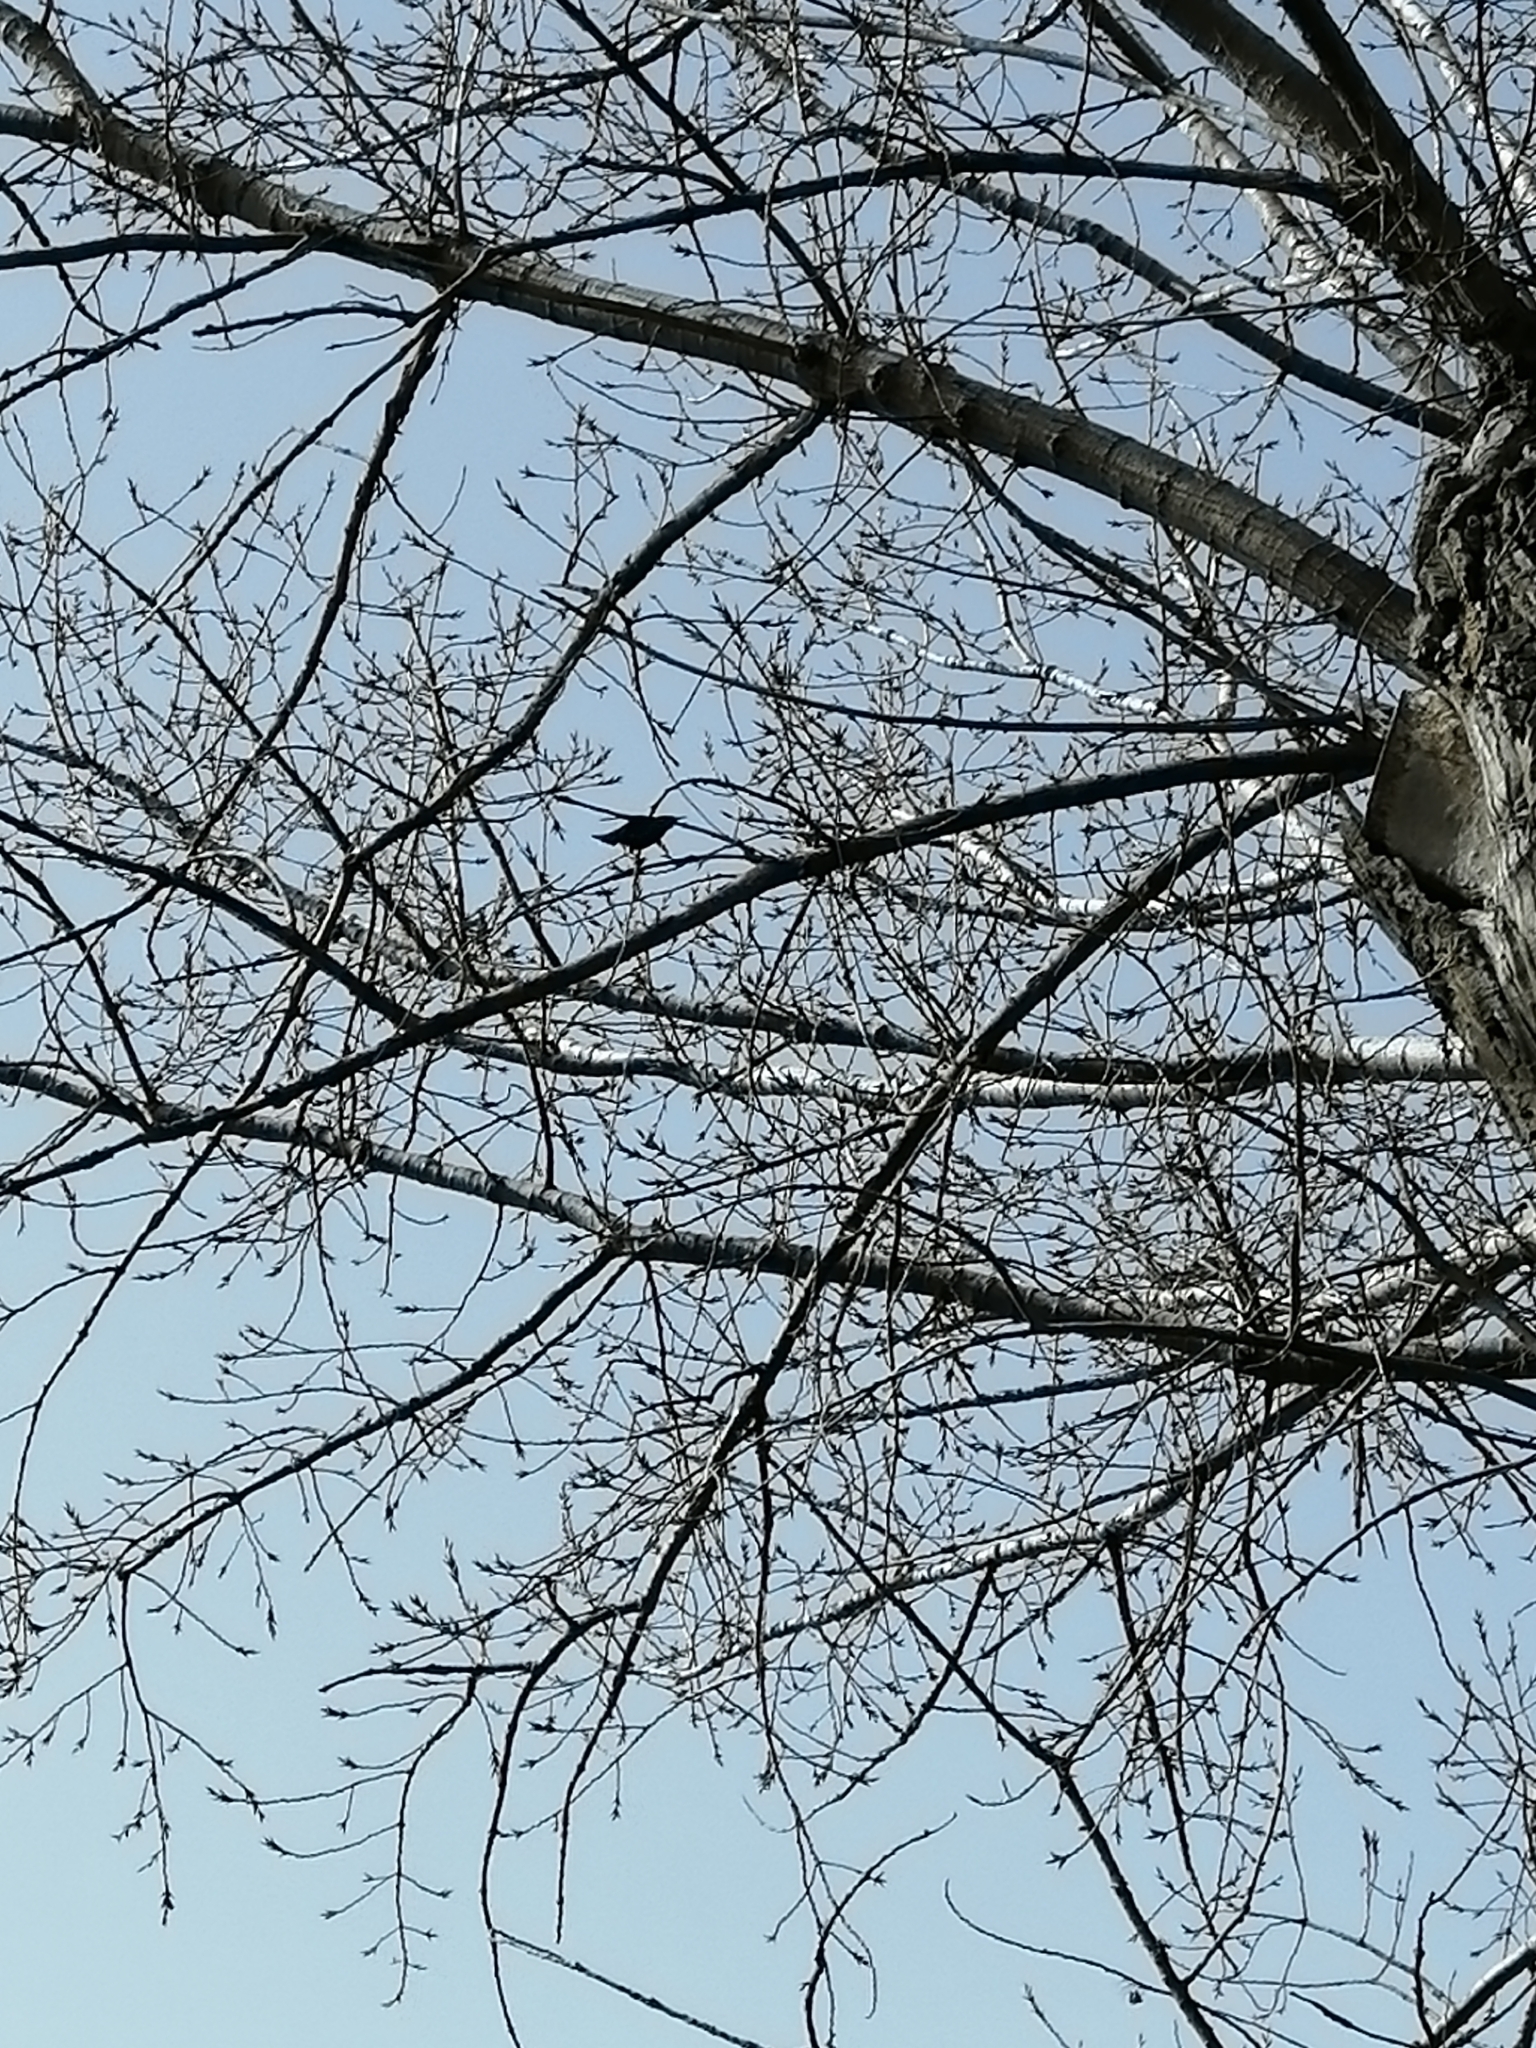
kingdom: Animalia
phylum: Chordata
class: Aves
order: Passeriformes
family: Sturnidae
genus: Sturnus
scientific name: Sturnus vulgaris
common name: Common starling
